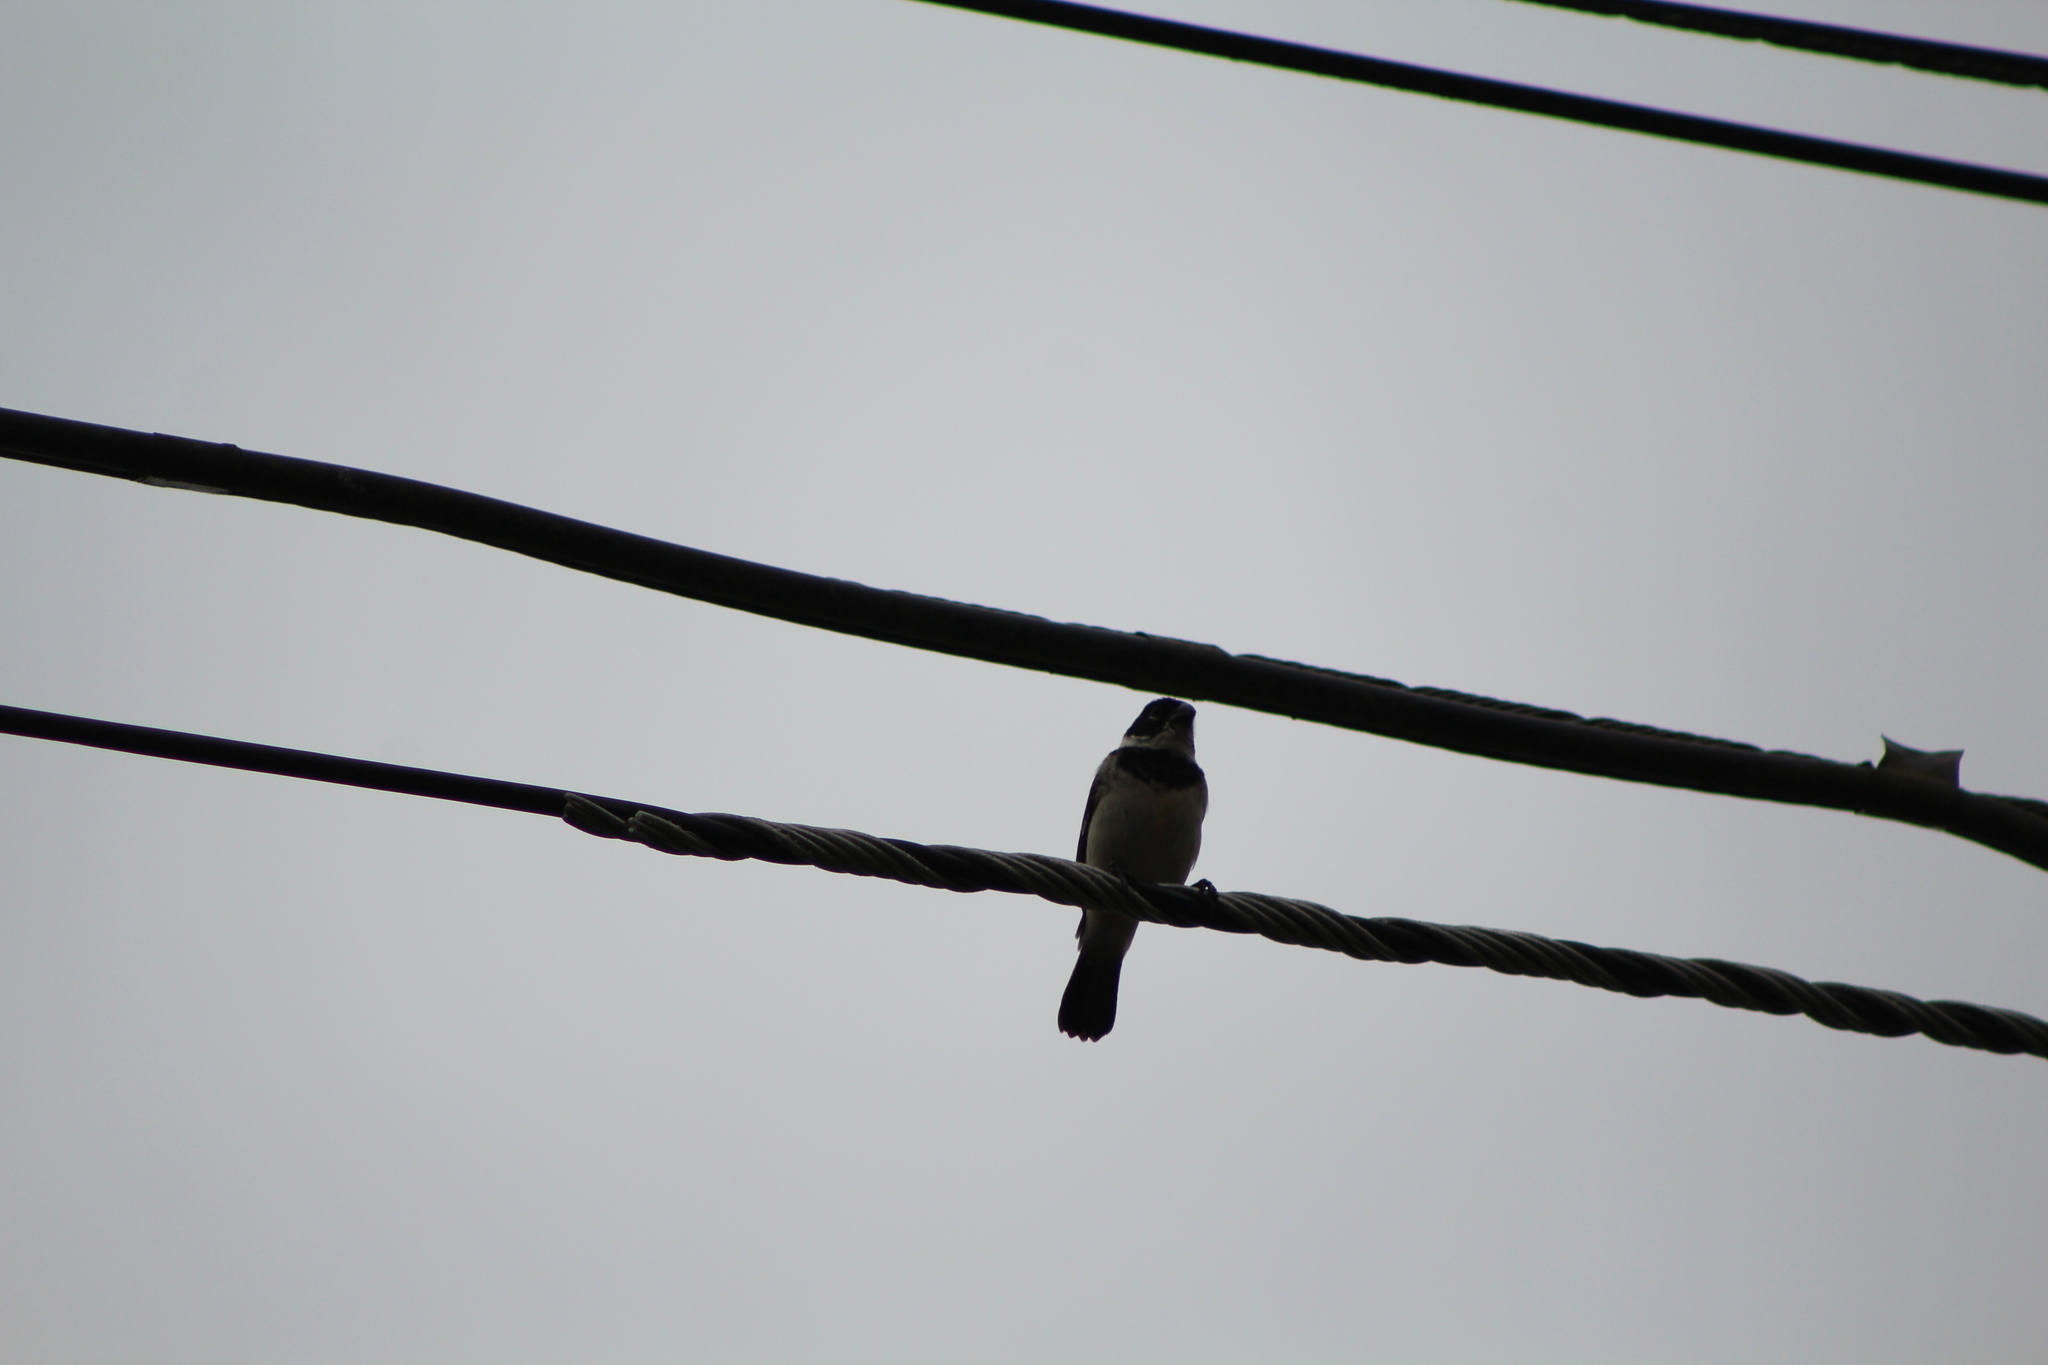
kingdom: Animalia
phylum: Chordata
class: Aves
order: Passeriformes
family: Thraupidae
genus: Sporophila
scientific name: Sporophila morelleti
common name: Morelet's seedeater
